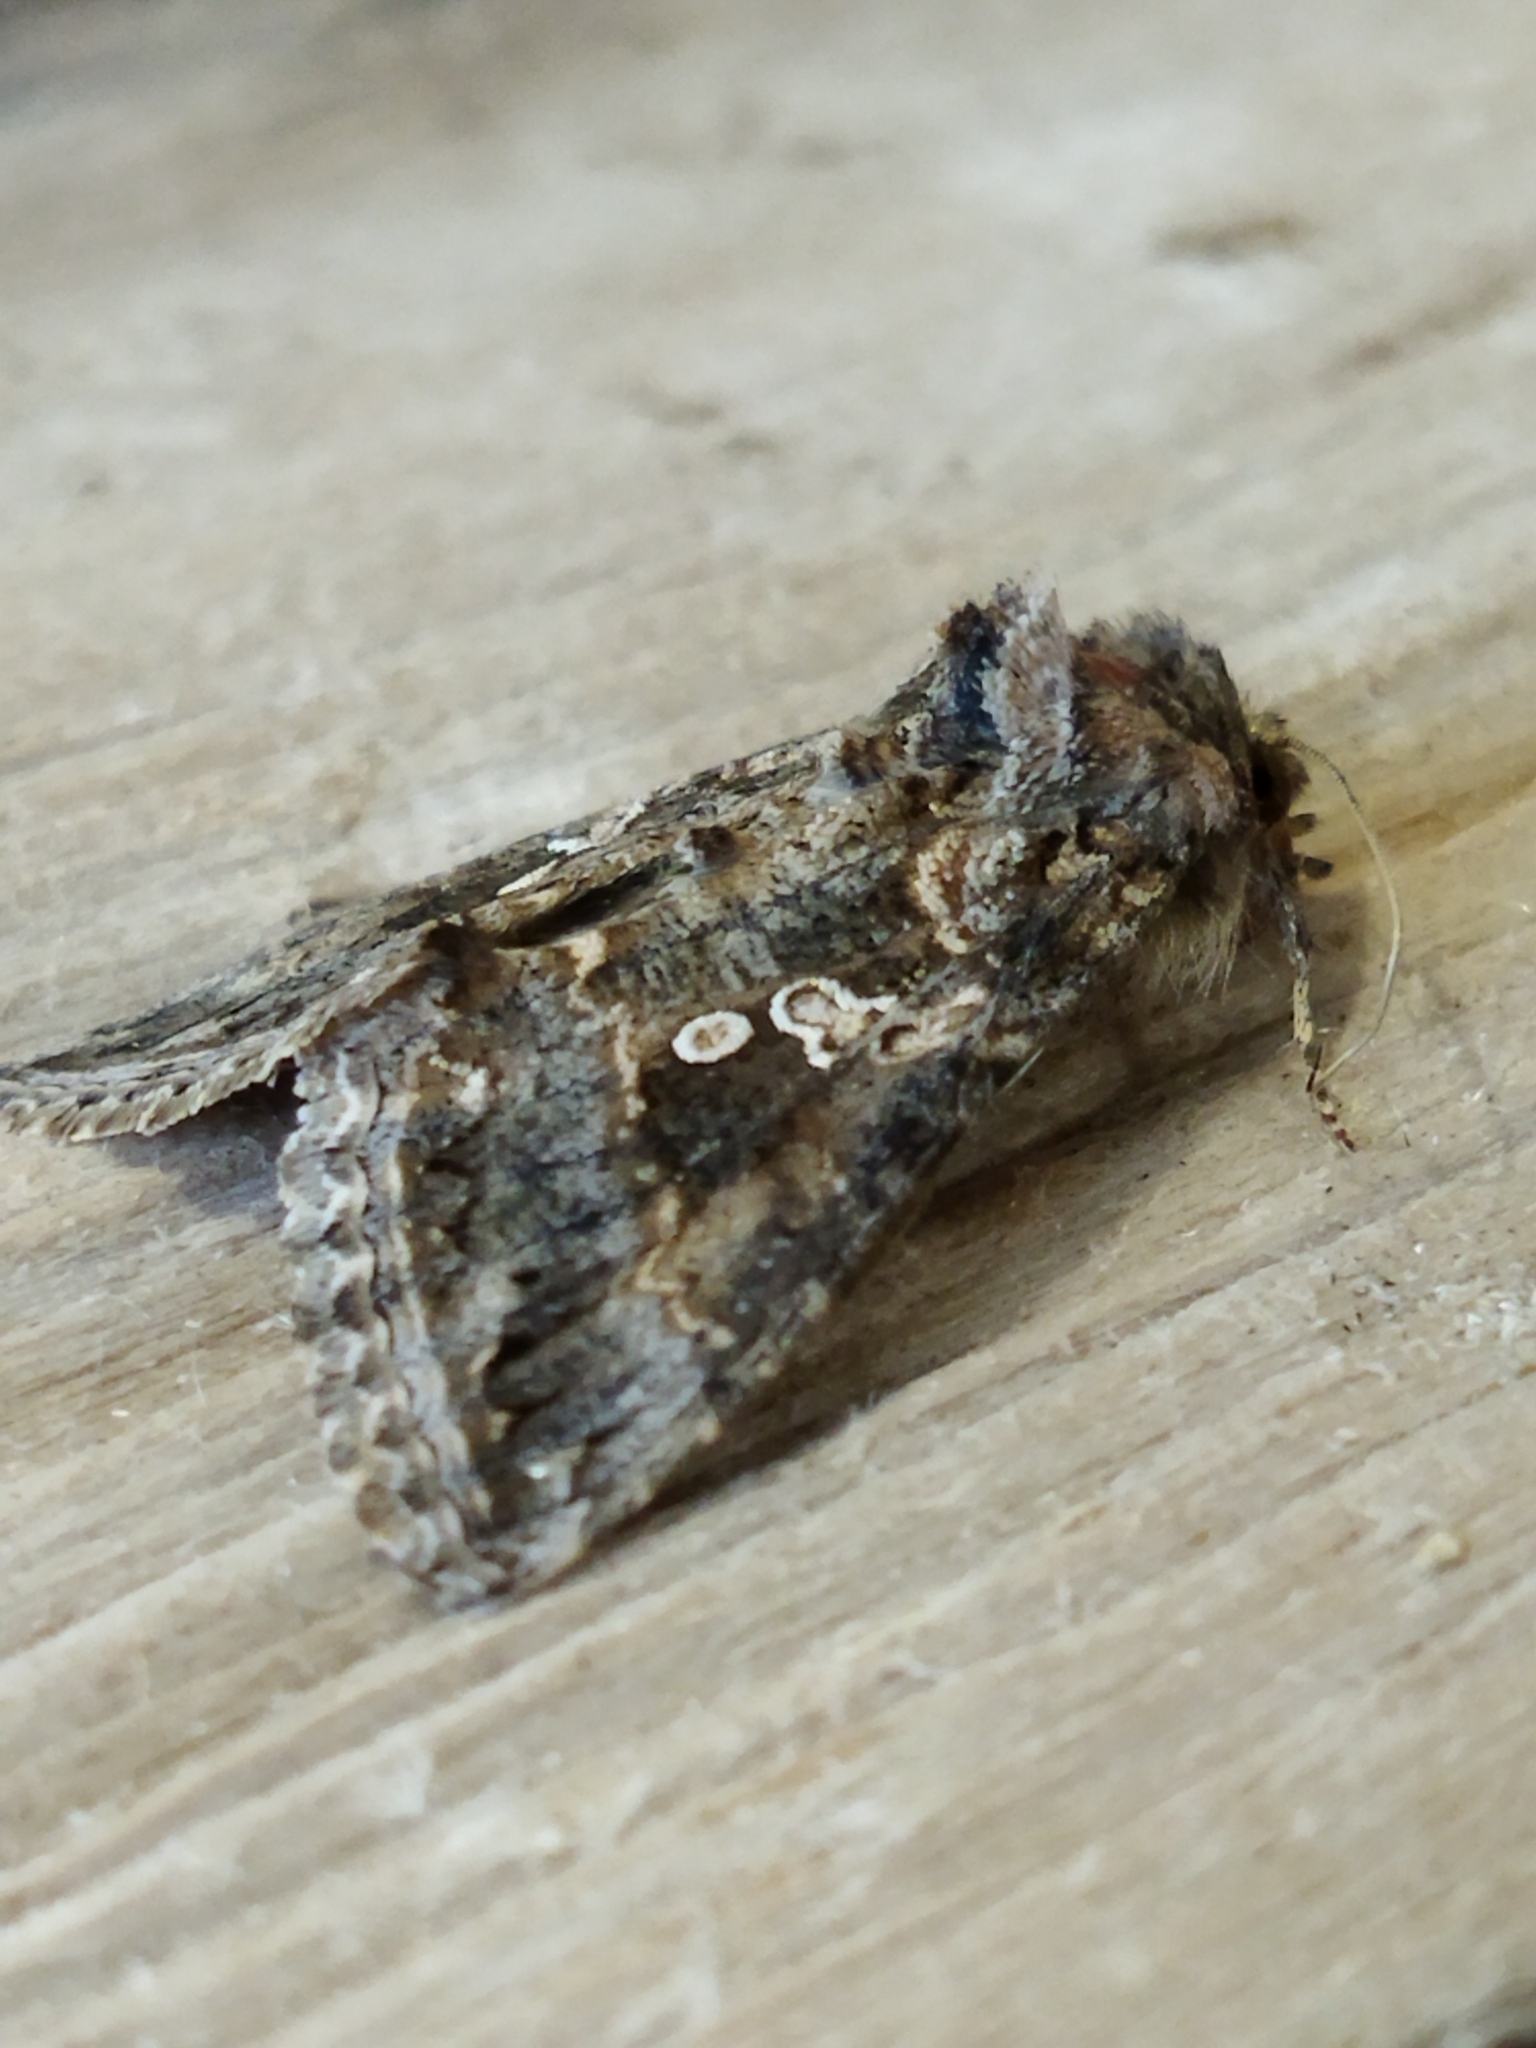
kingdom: Animalia
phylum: Arthropoda
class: Insecta
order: Lepidoptera
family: Noctuidae
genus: Trichoplusia
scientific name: Trichoplusia ni
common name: Ni moth
